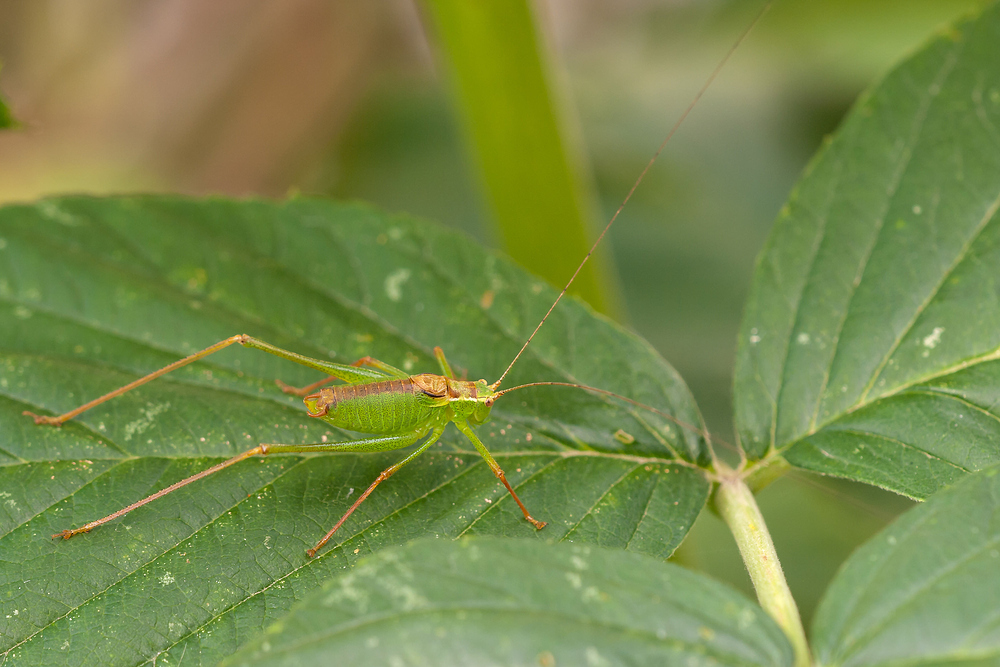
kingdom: Animalia
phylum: Arthropoda
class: Insecta
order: Orthoptera
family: Tettigoniidae
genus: Leptophyes
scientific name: Leptophyes punctatissima
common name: Speckled bush-cricket
